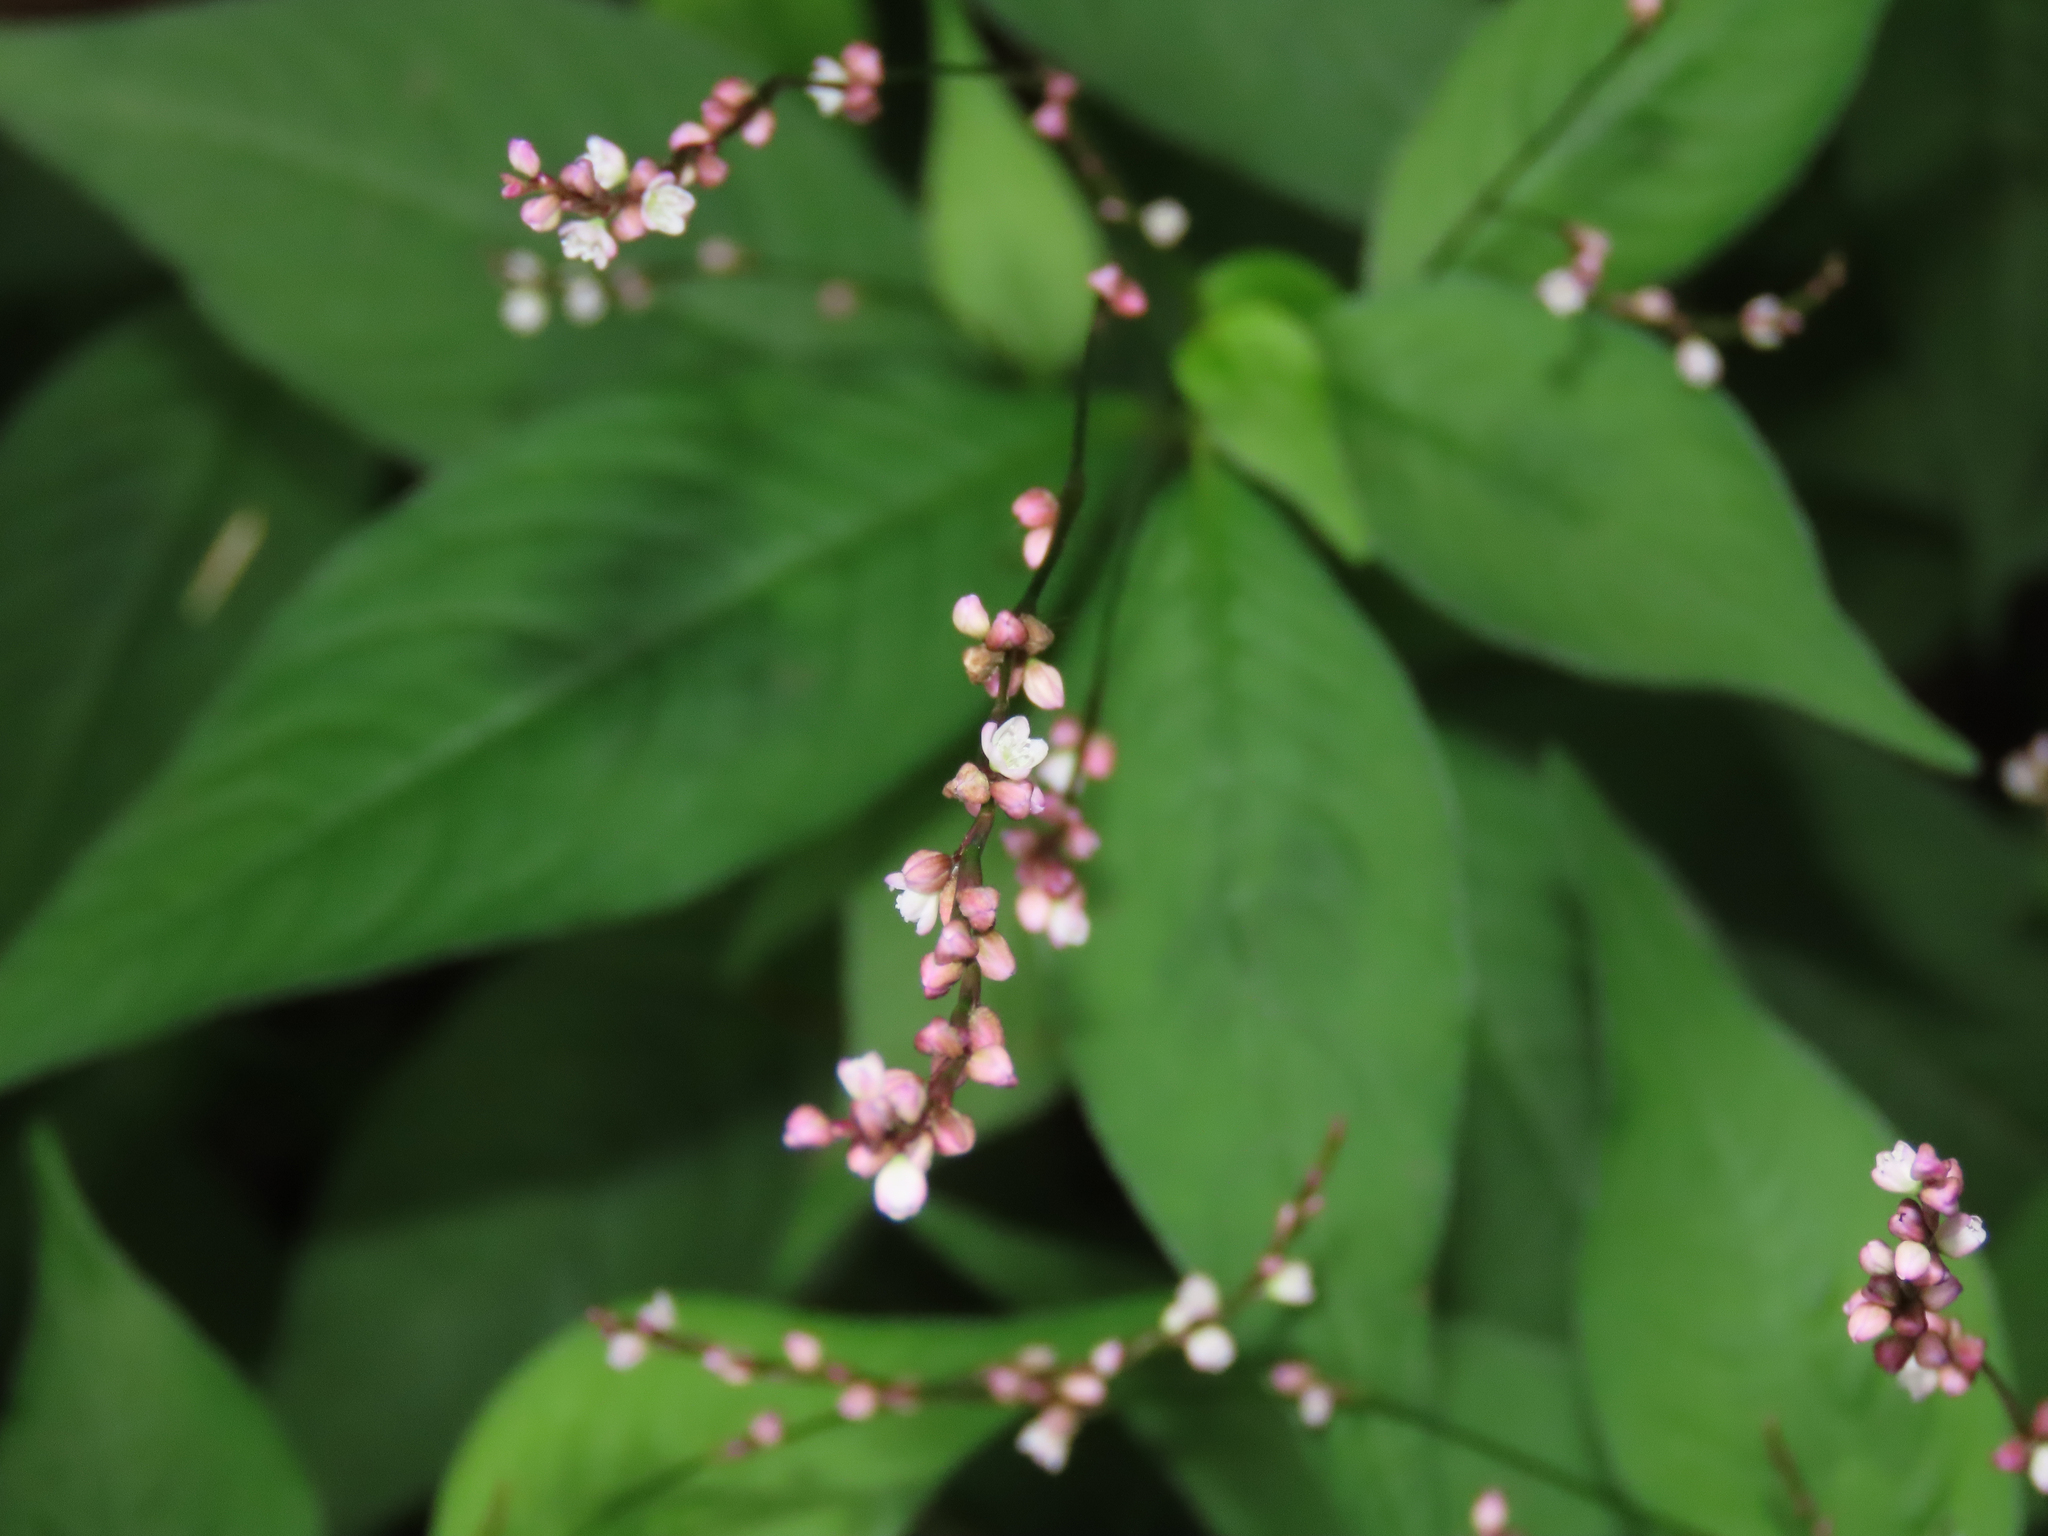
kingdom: Plantae
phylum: Tracheophyta
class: Magnoliopsida
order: Caryophyllales
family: Polygonaceae
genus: Persicaria
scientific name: Persicaria longiseta
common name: Bristly lady's-thumb
